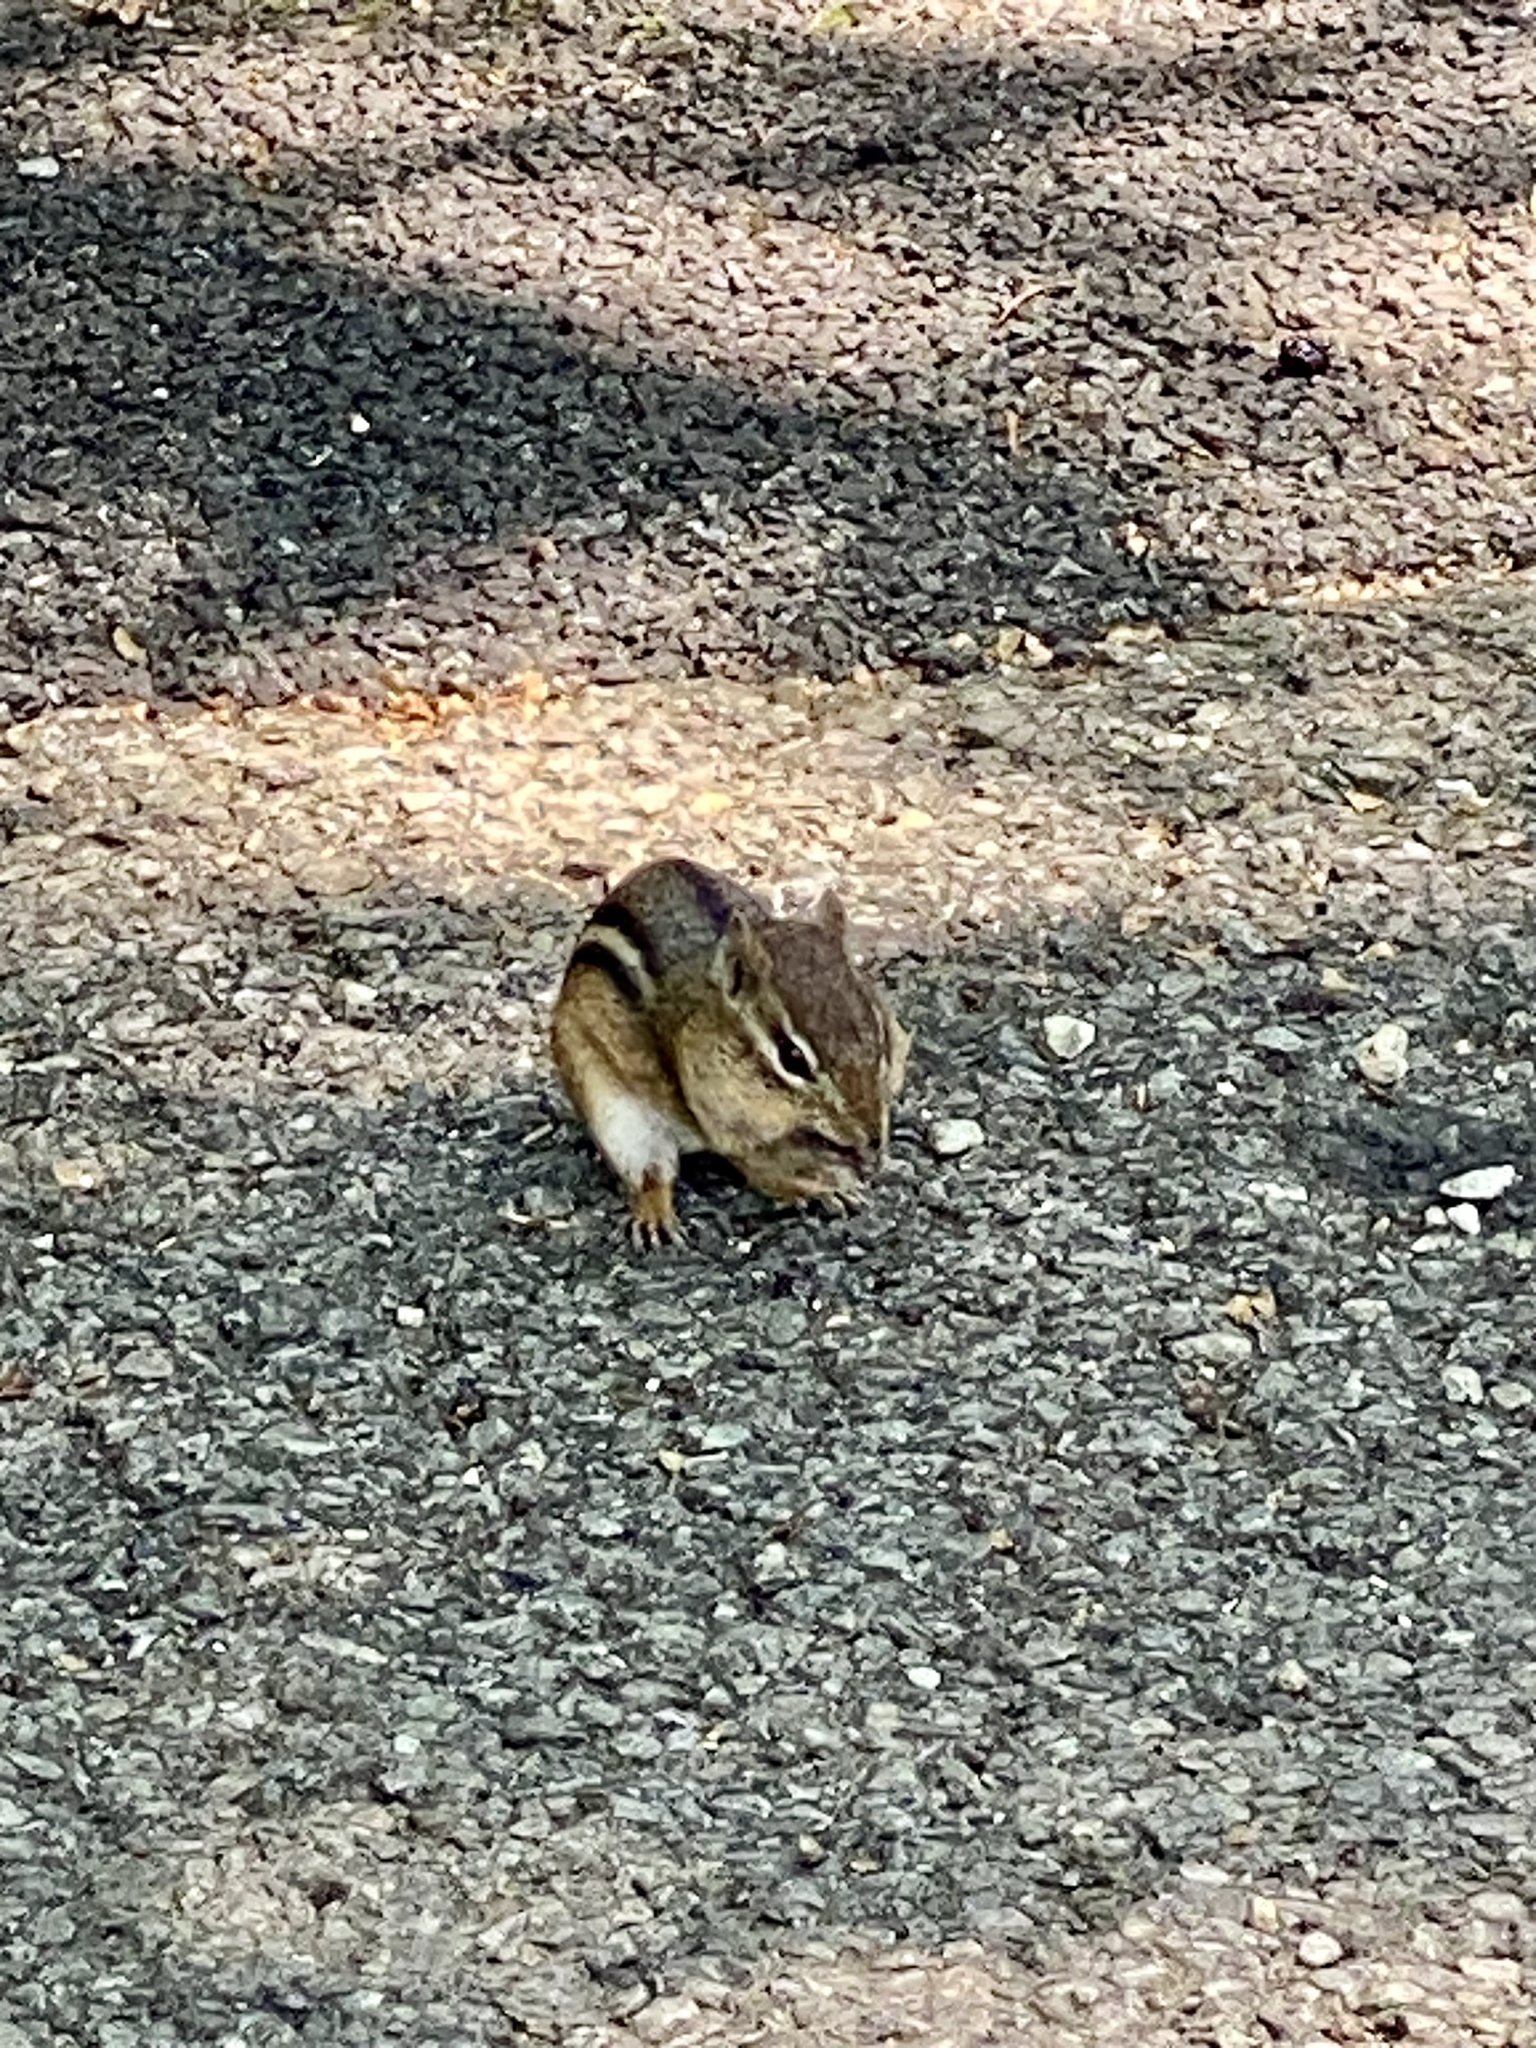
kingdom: Animalia
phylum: Chordata
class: Mammalia
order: Rodentia
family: Sciuridae
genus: Tamias
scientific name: Tamias striatus
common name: Eastern chipmunk
